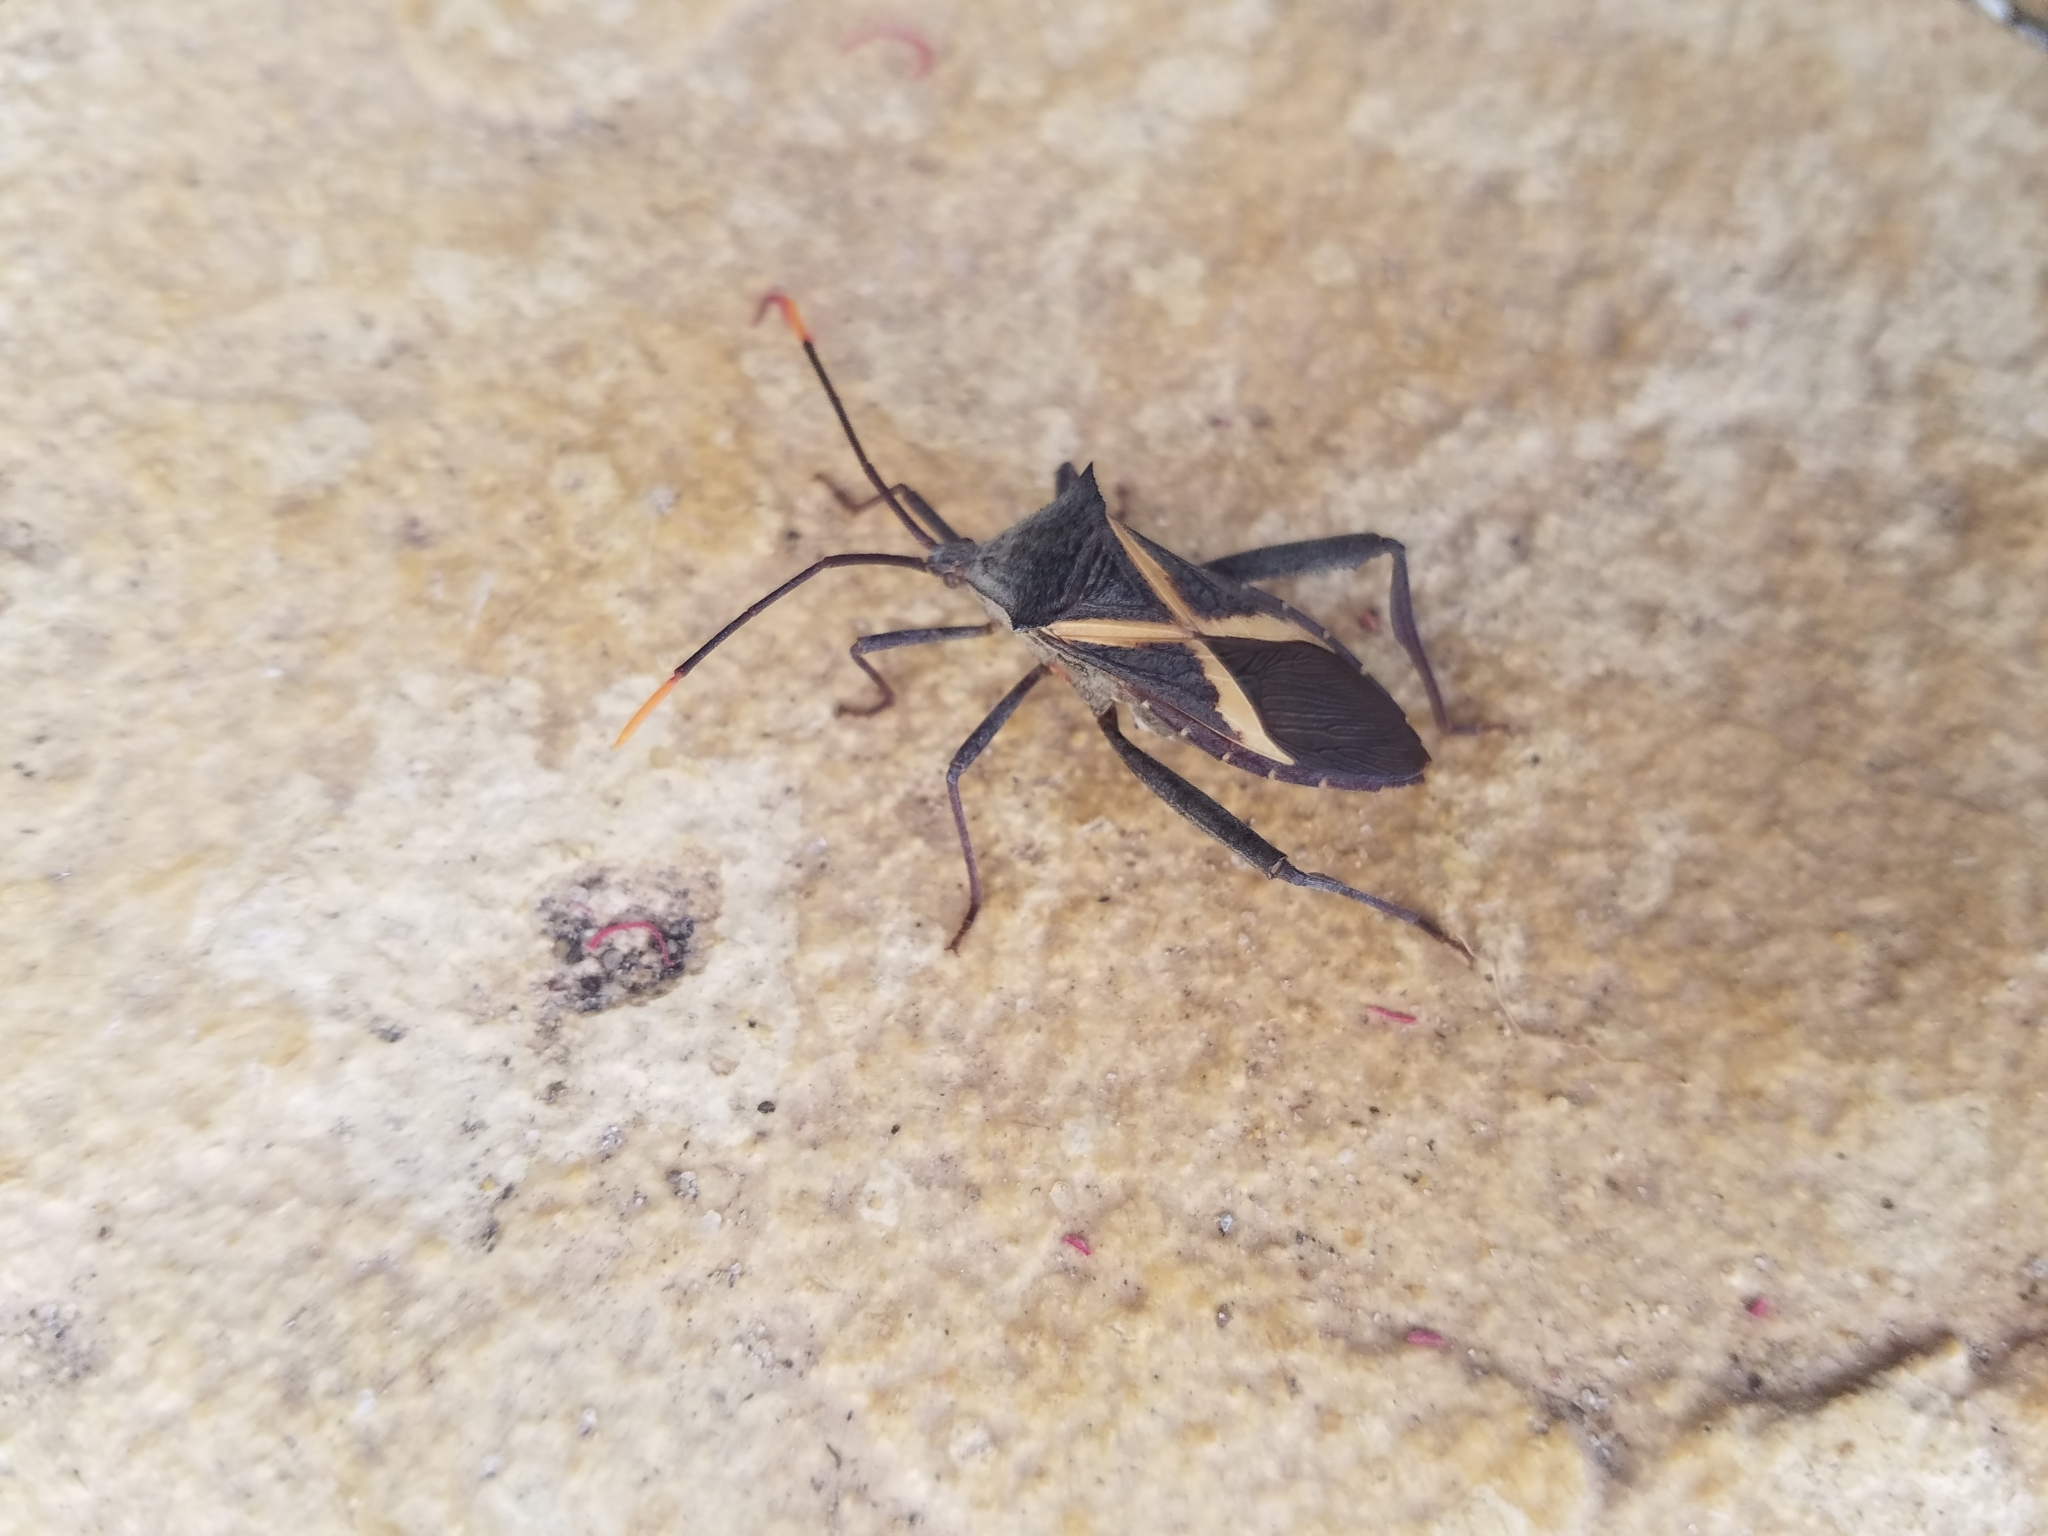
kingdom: Animalia
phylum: Arthropoda
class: Insecta
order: Hemiptera
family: Coreidae
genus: Mictis
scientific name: Mictis profana
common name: Crusader bug
